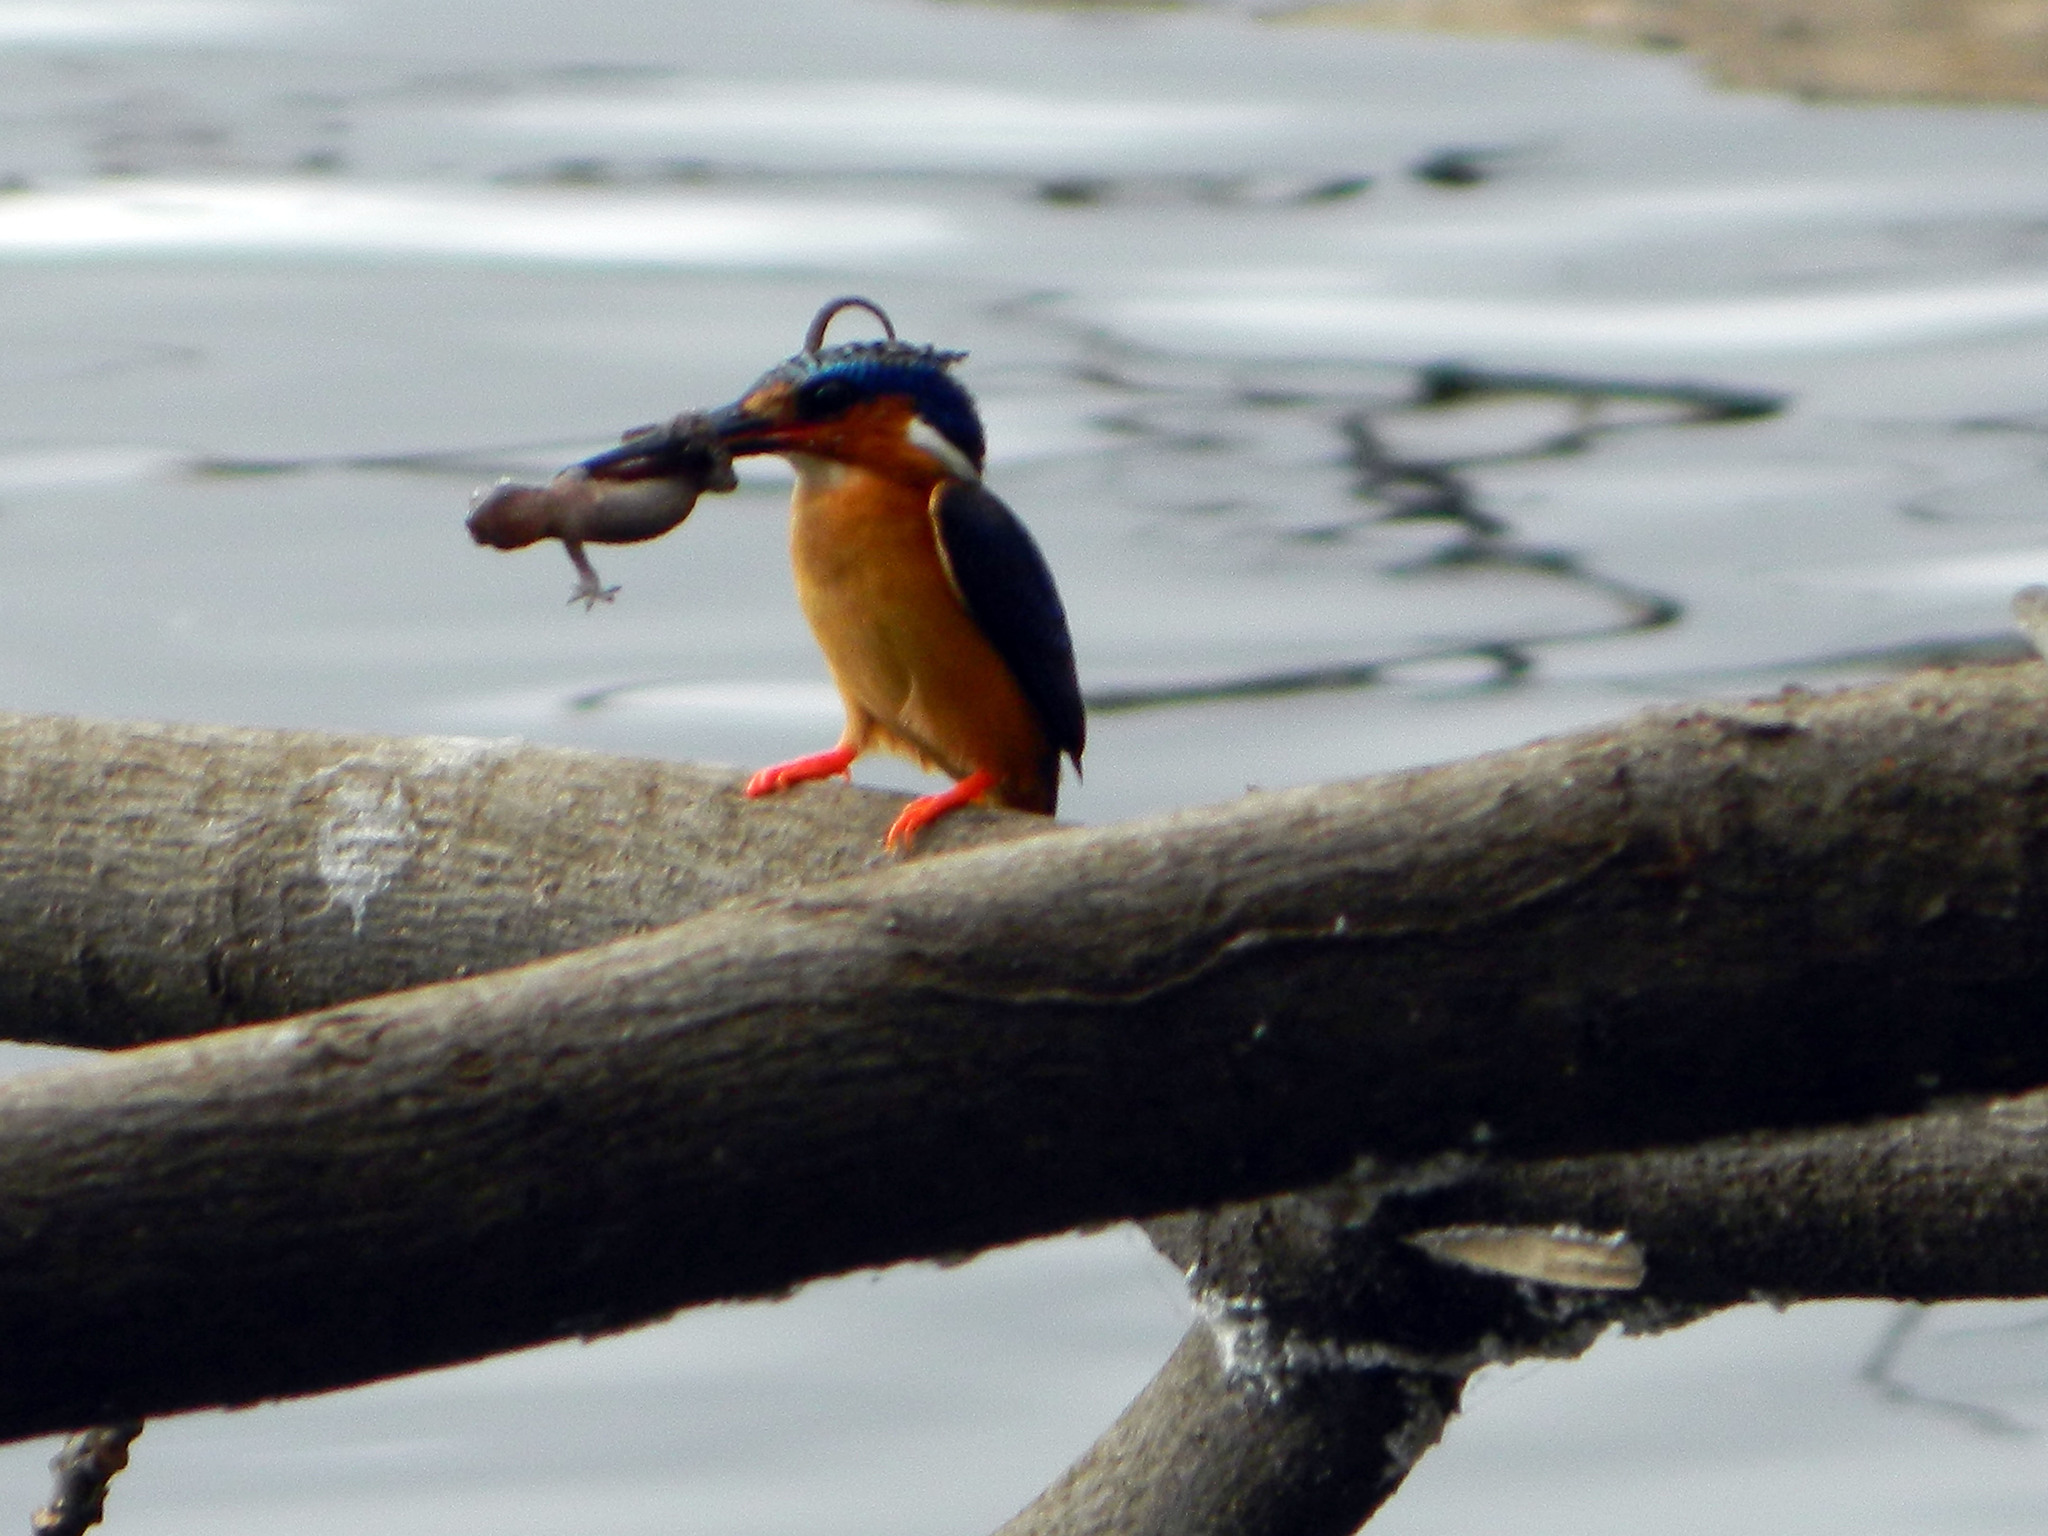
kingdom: Animalia
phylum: Chordata
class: Squamata
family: Gekkonidae
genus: Hemidactylus
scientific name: Hemidactylus mercatorius
